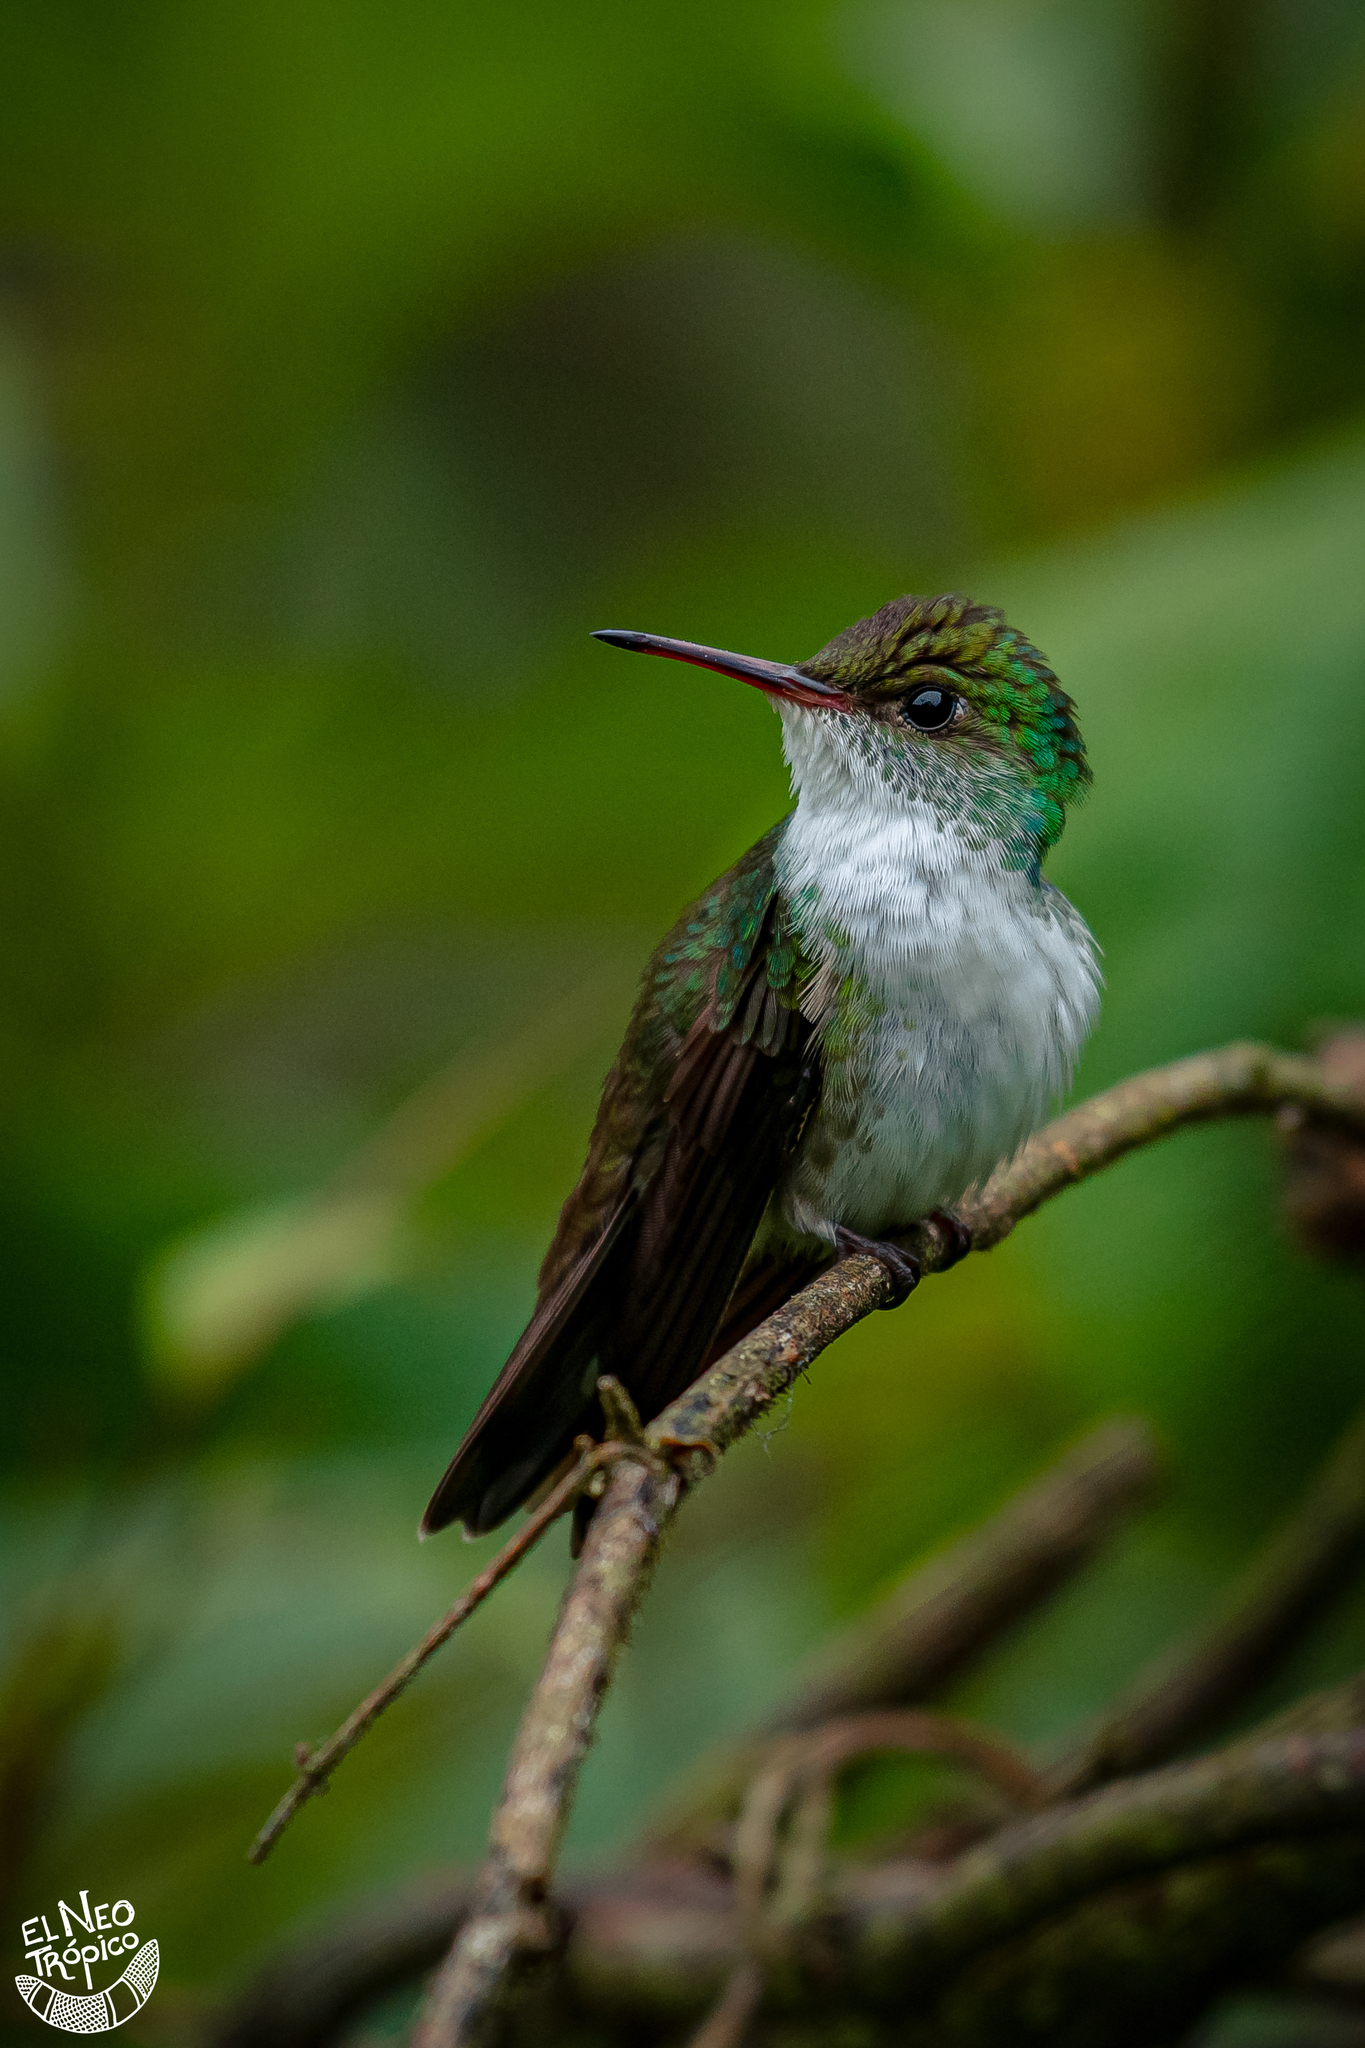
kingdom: Animalia
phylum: Chordata
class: Aves
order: Apodiformes
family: Trochilidae
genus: Chlorestes
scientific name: Chlorestes candida
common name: White-bellied emerald
